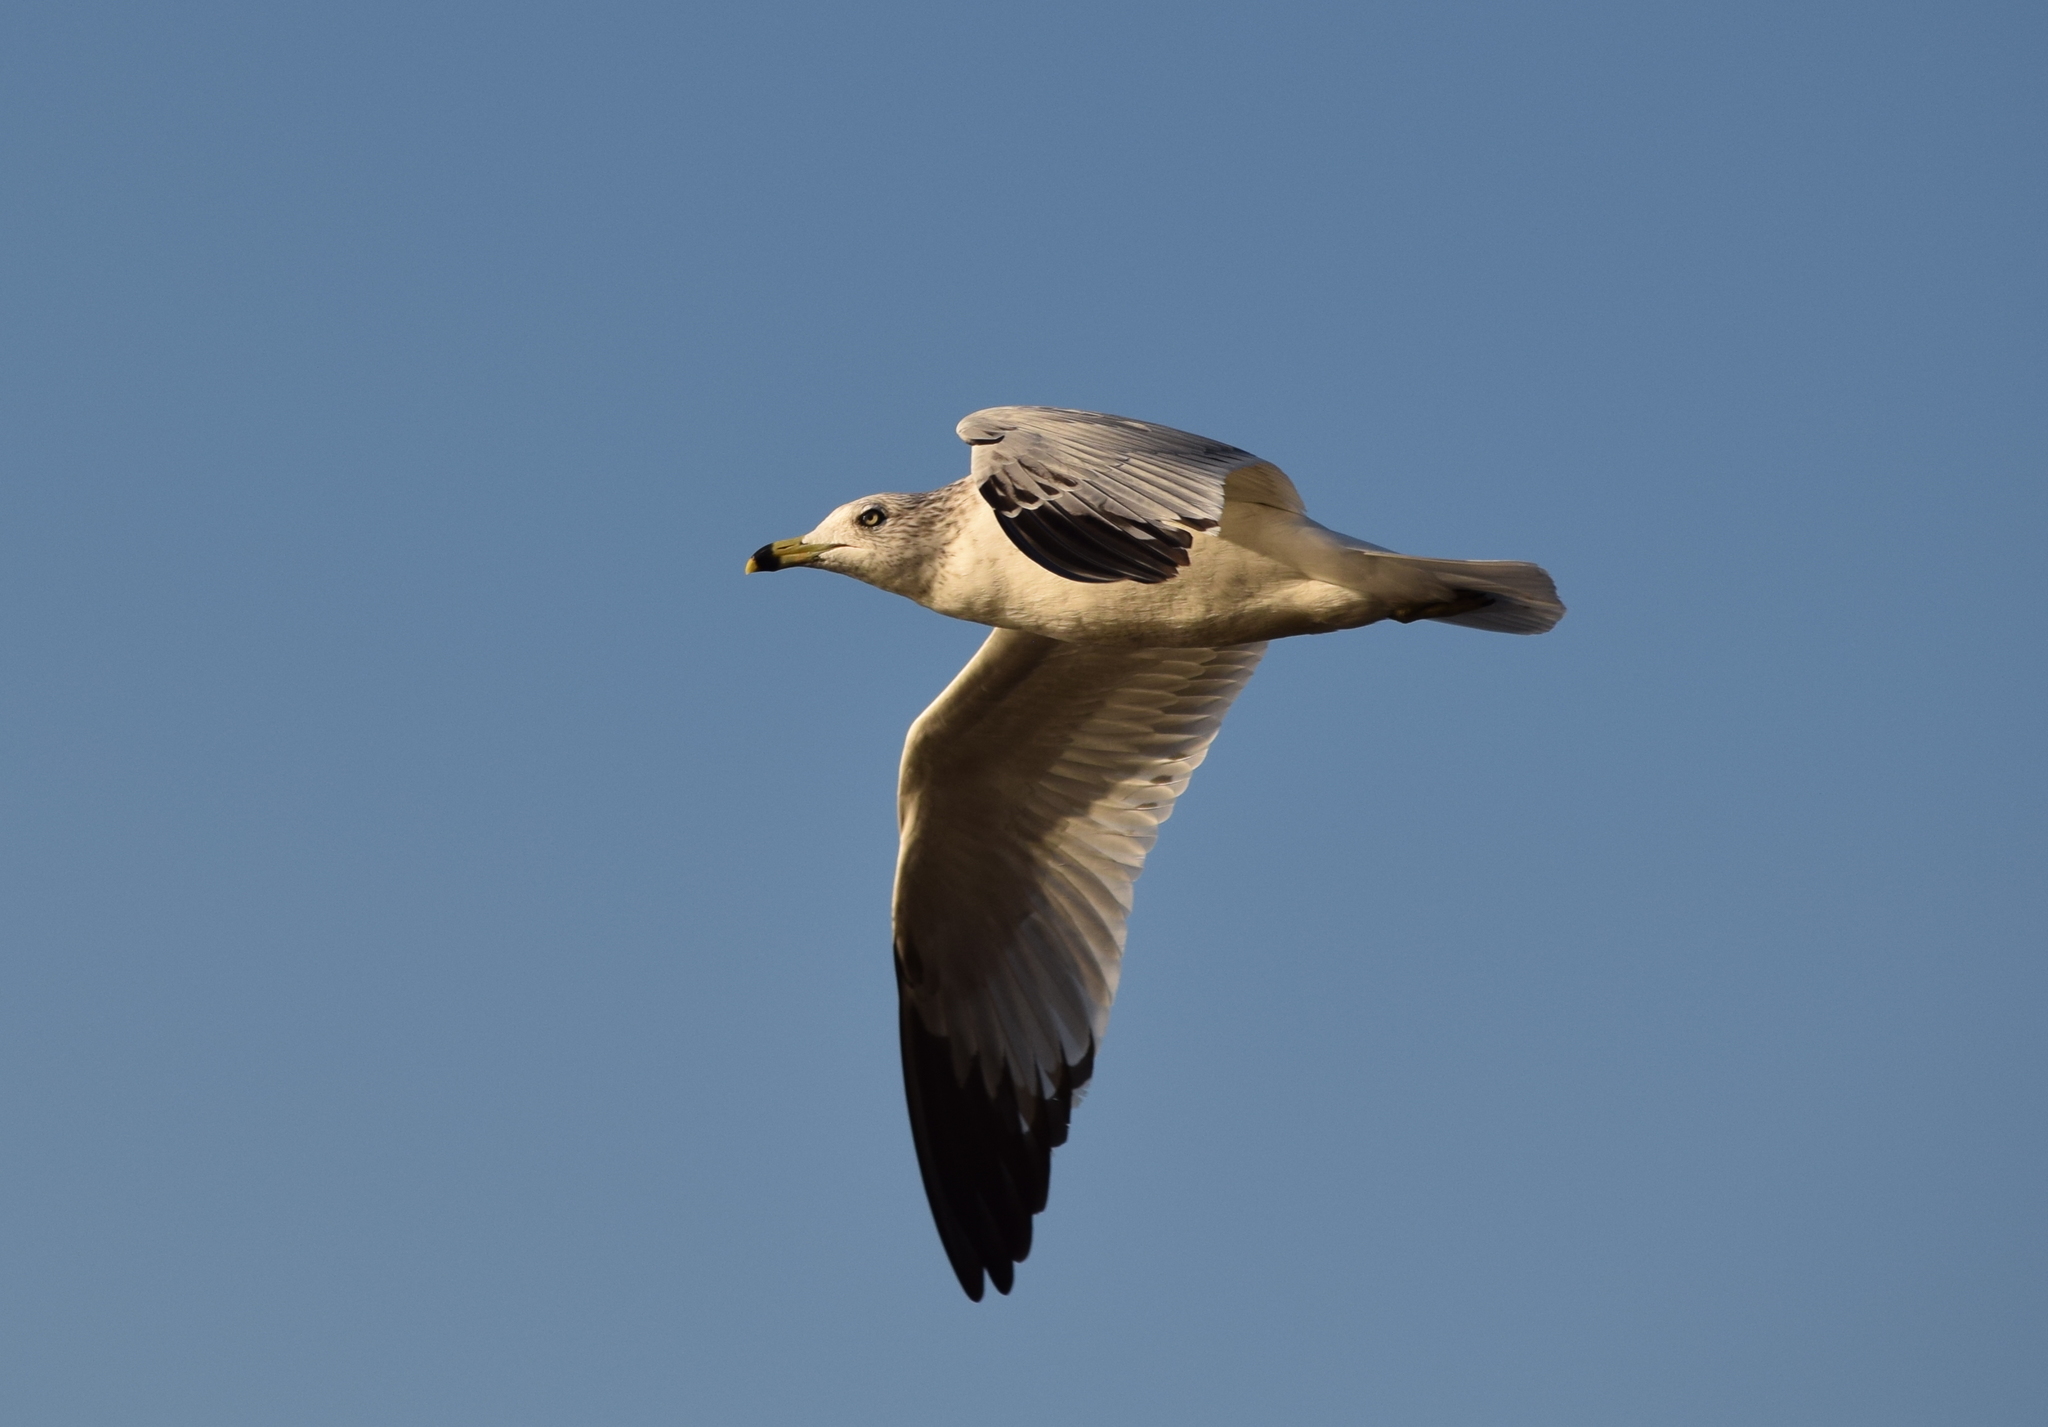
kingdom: Animalia
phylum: Chordata
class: Aves
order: Charadriiformes
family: Laridae
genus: Larus
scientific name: Larus delawarensis
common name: Ring-billed gull
